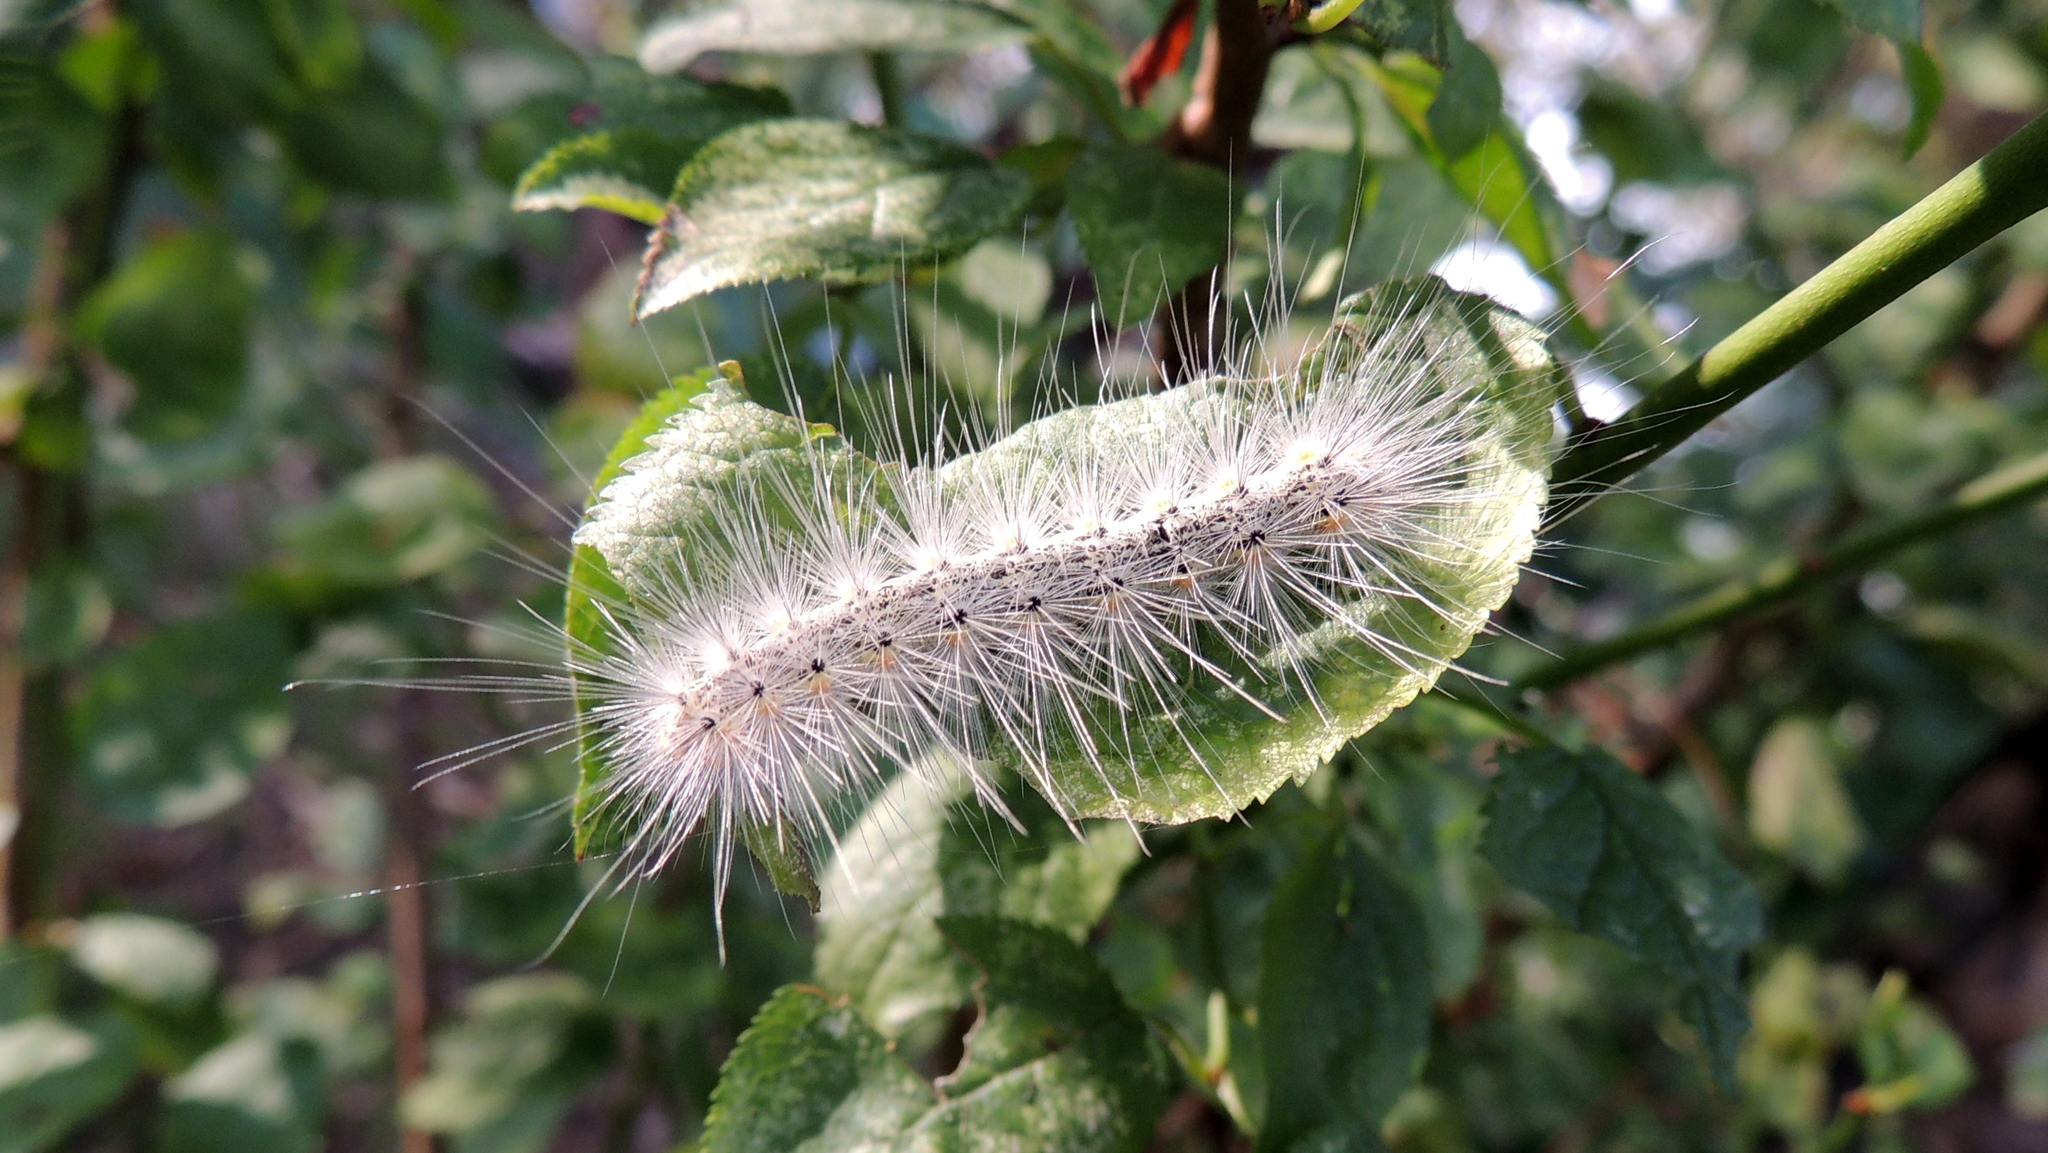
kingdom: Animalia
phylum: Arthropoda
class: Insecta
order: Lepidoptera
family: Erebidae
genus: Hyphantria
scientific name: Hyphantria cunea
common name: American white moth
